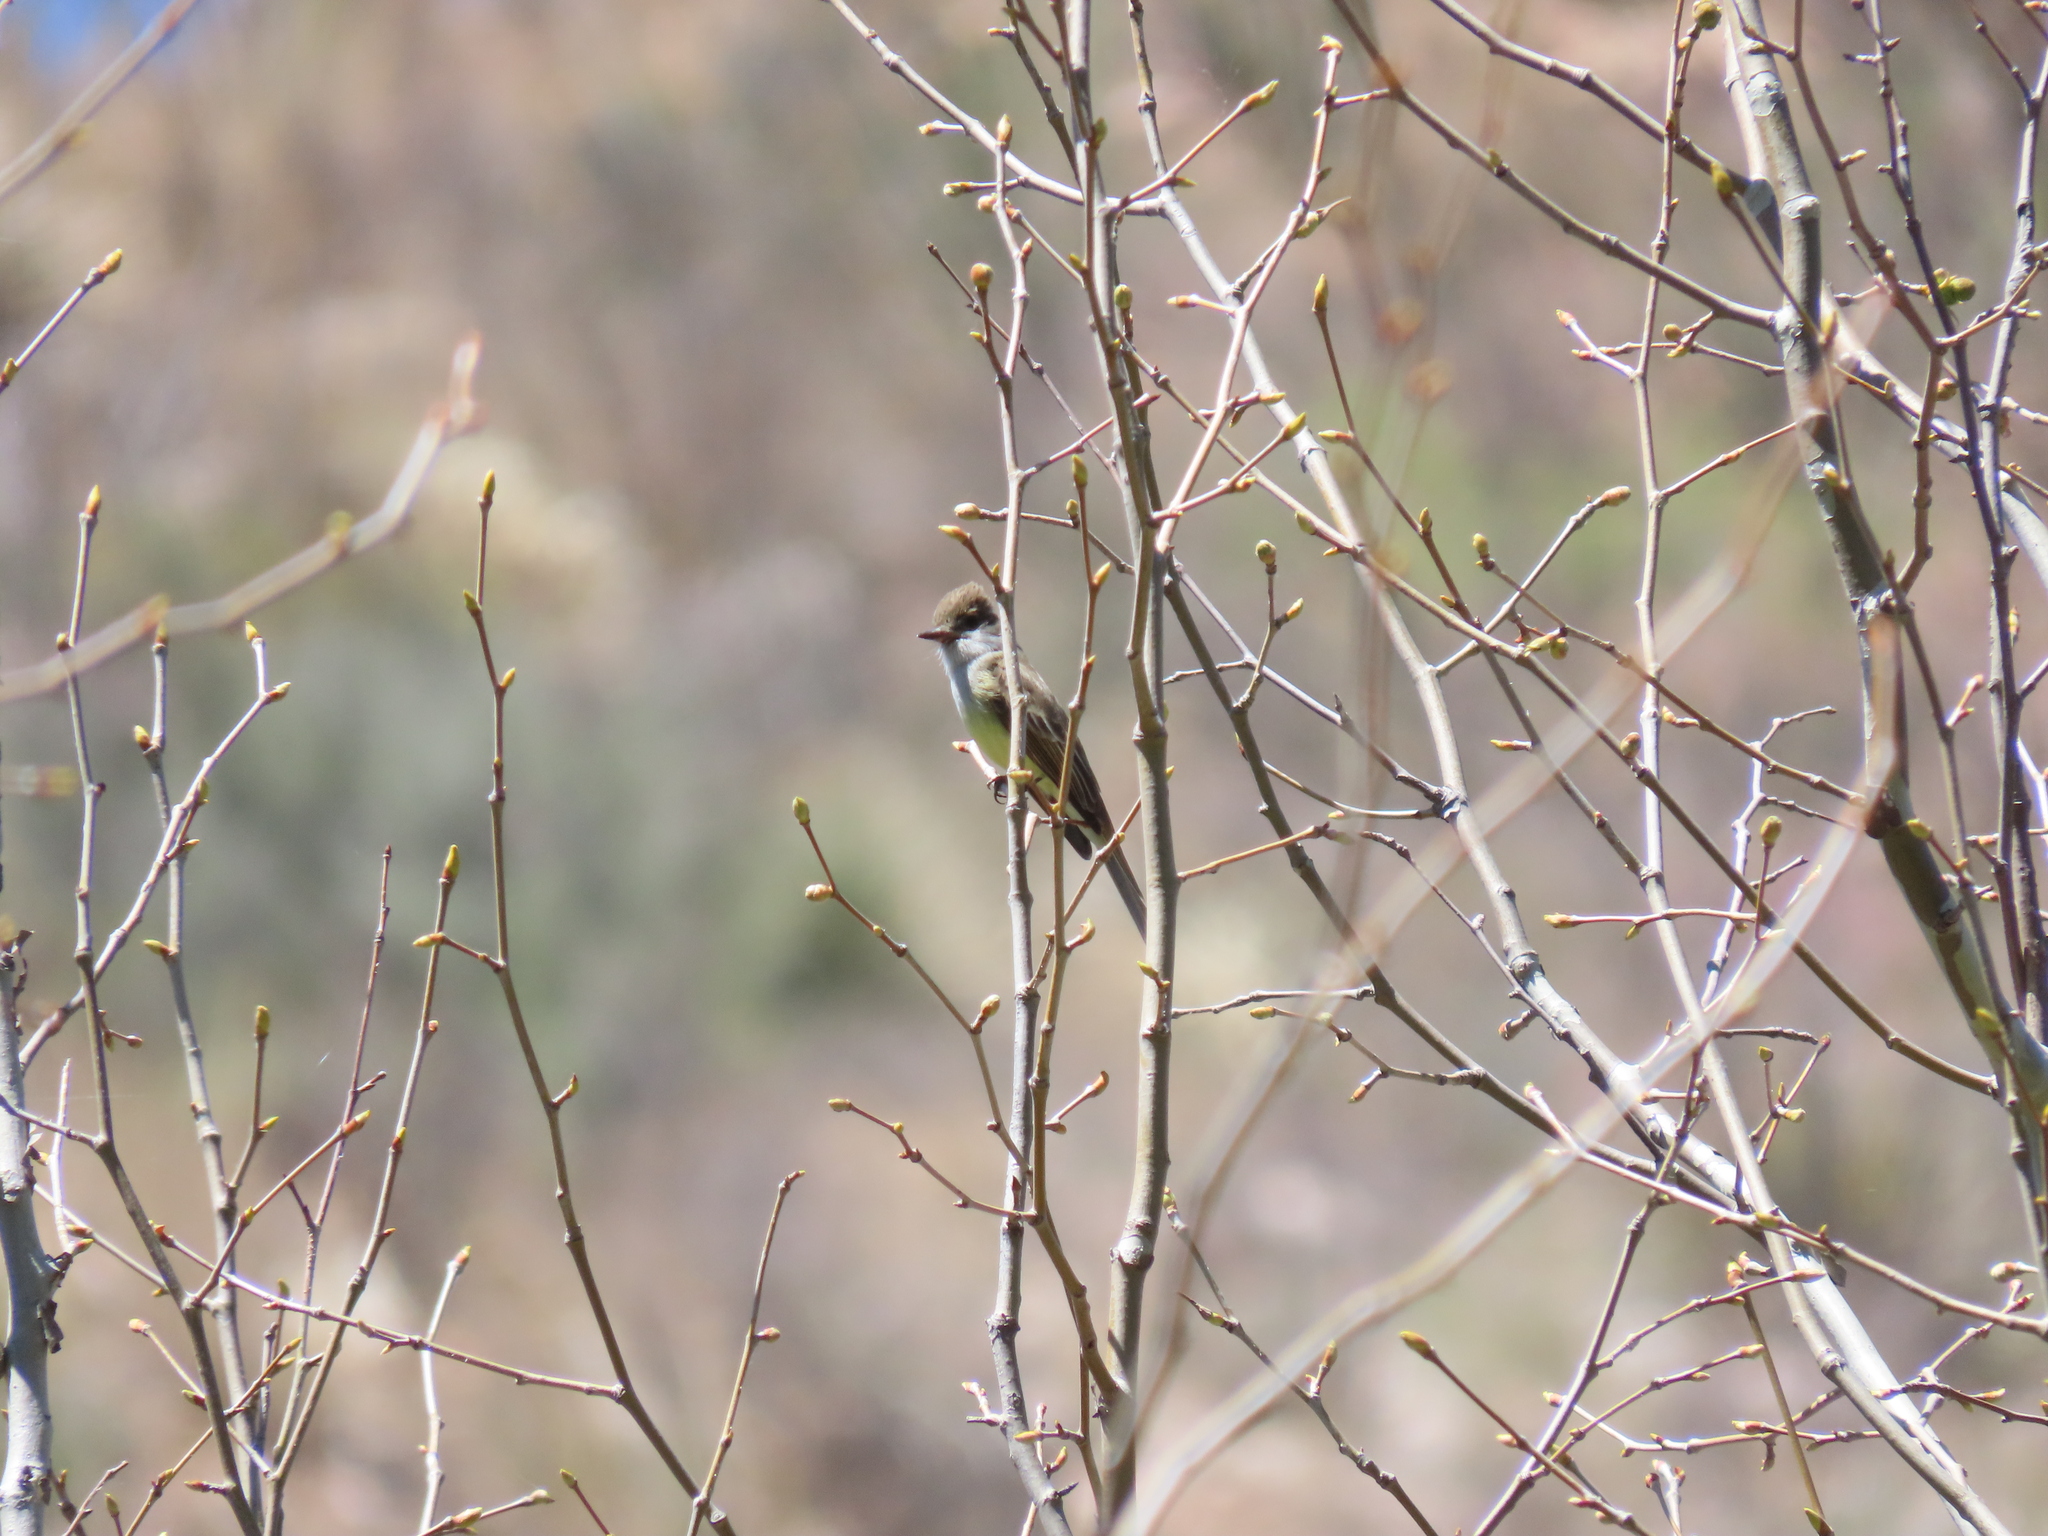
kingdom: Animalia
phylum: Chordata
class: Aves
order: Passeriformes
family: Tyrannidae
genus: Myiarchus
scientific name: Myiarchus tuberculifer
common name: Dusky-capped flycatcher
